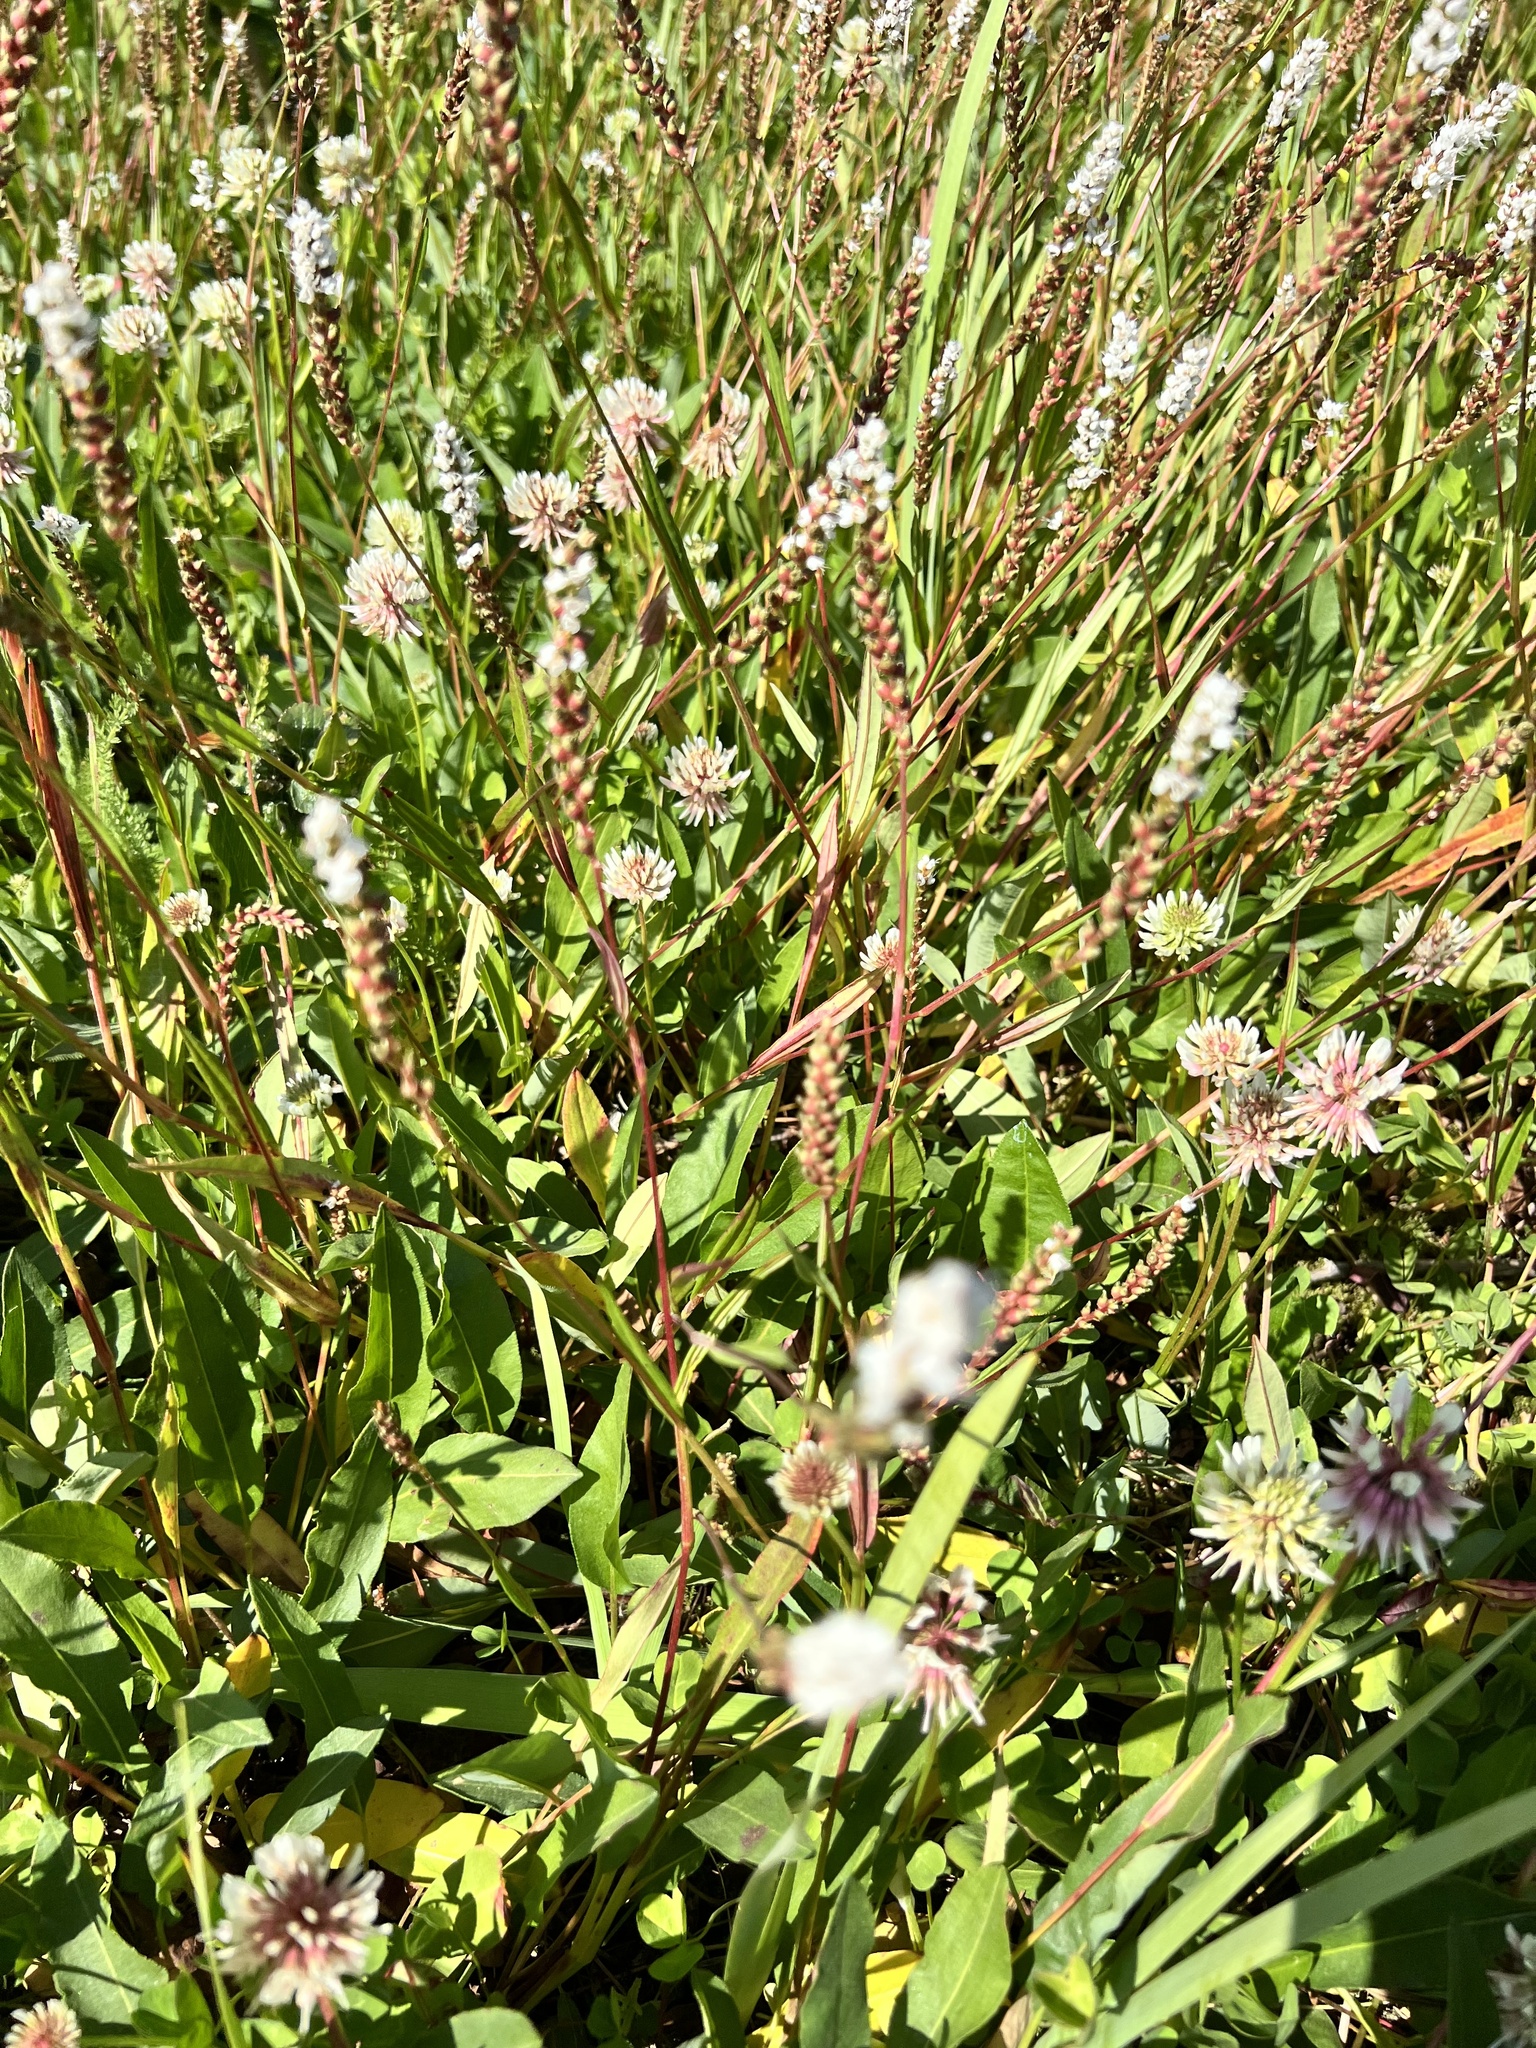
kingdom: Plantae
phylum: Tracheophyta
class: Magnoliopsida
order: Caryophyllales
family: Polygonaceae
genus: Bistorta
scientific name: Bistorta vivipara
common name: Alpine bistort
